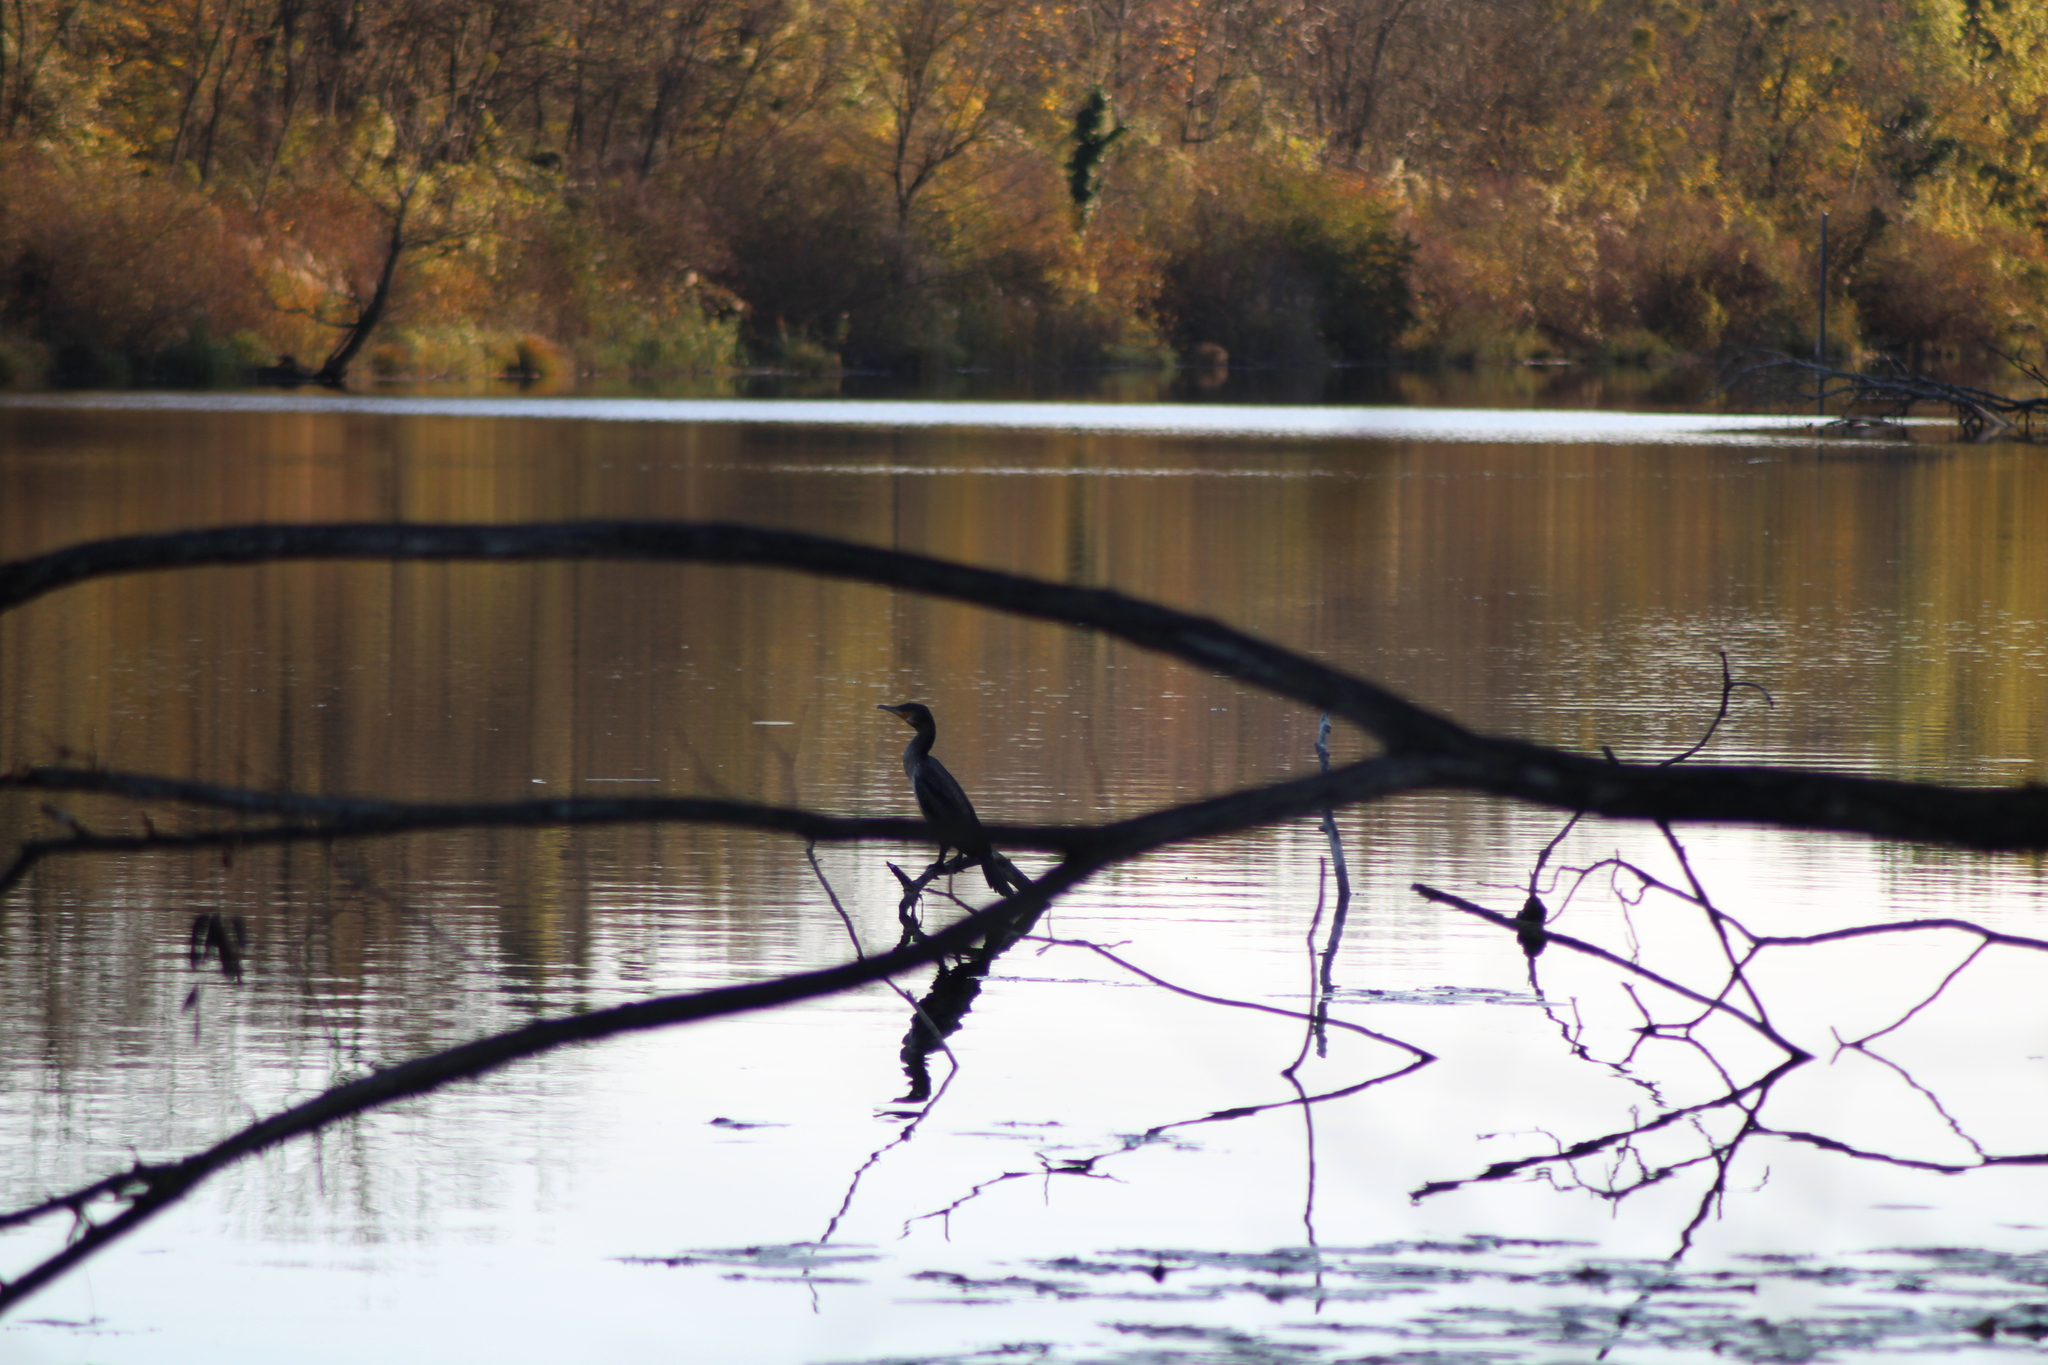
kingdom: Animalia
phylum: Chordata
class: Aves
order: Suliformes
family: Phalacrocoracidae
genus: Phalacrocorax
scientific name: Phalacrocorax carbo
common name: Great cormorant
